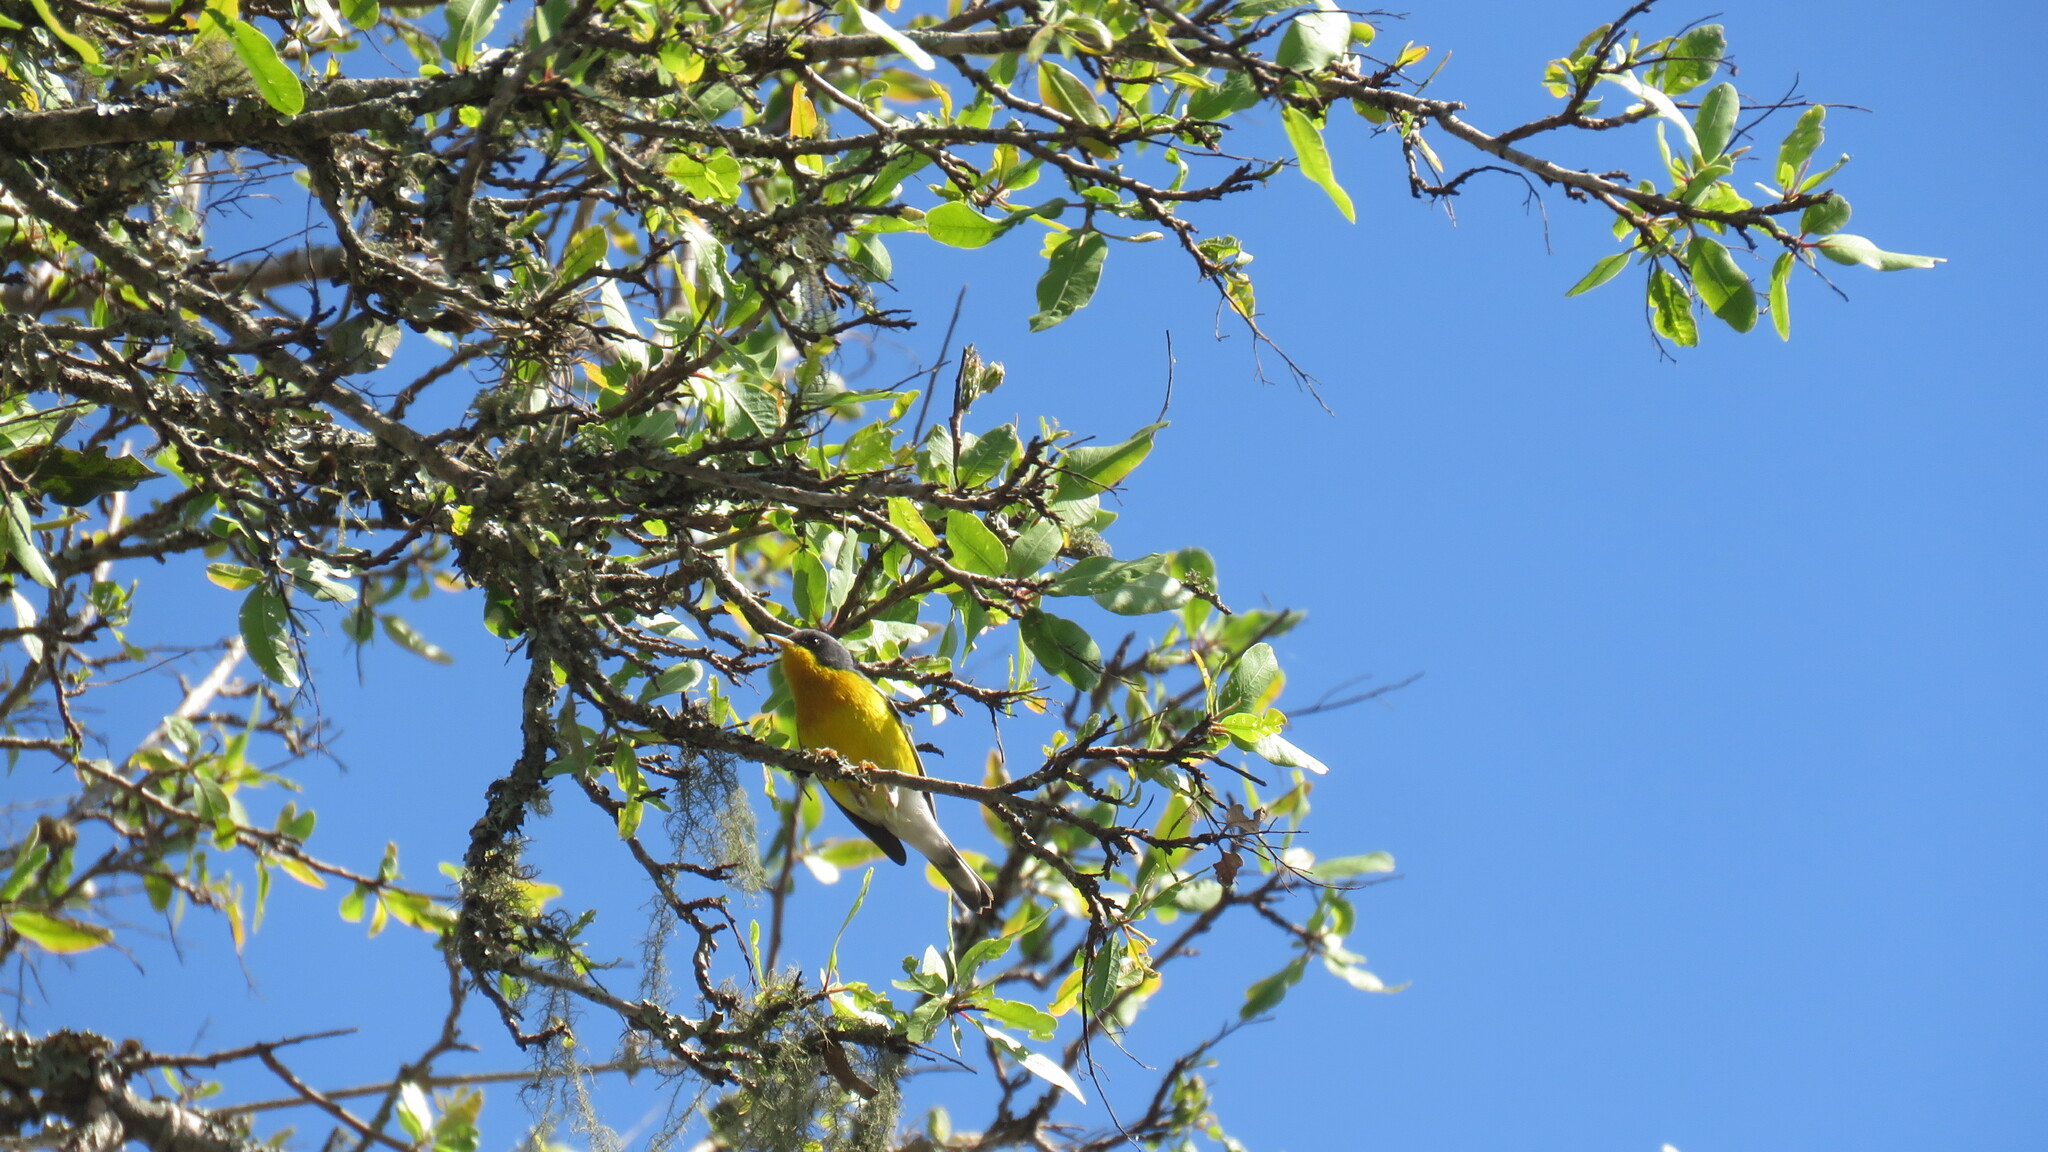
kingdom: Animalia
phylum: Chordata
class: Aves
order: Passeriformes
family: Parulidae
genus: Setophaga
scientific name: Setophaga pitiayumi
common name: Tropical parula
